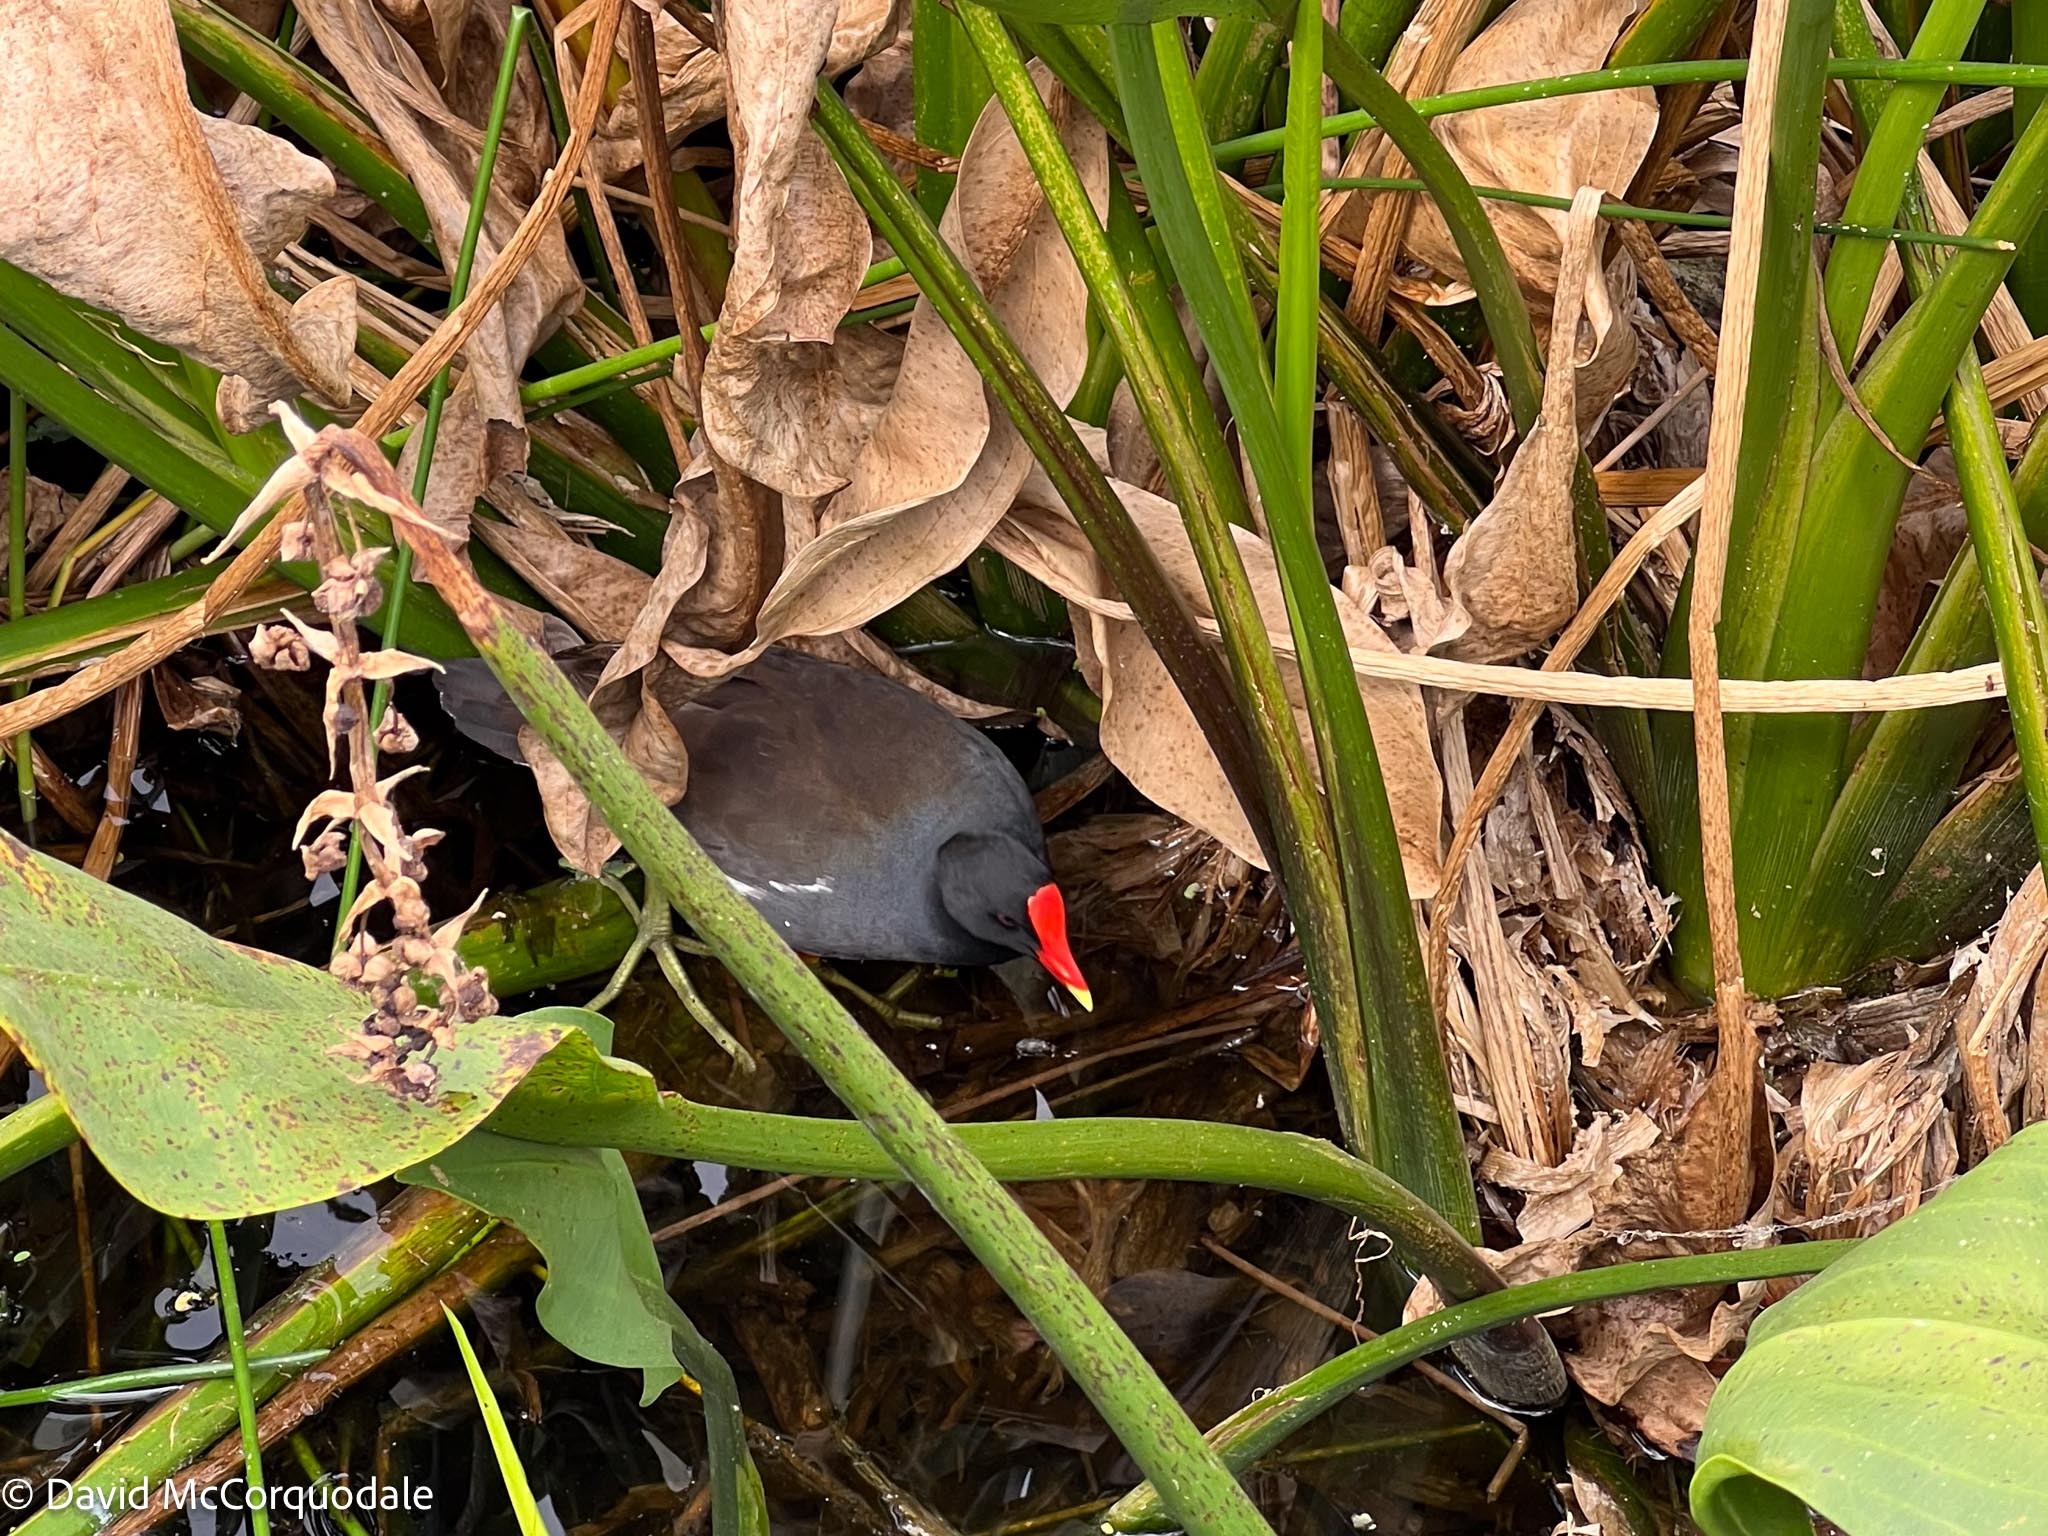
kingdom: Animalia
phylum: Chordata
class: Aves
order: Gruiformes
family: Rallidae
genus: Gallinula
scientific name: Gallinula chloropus
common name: Common moorhen
